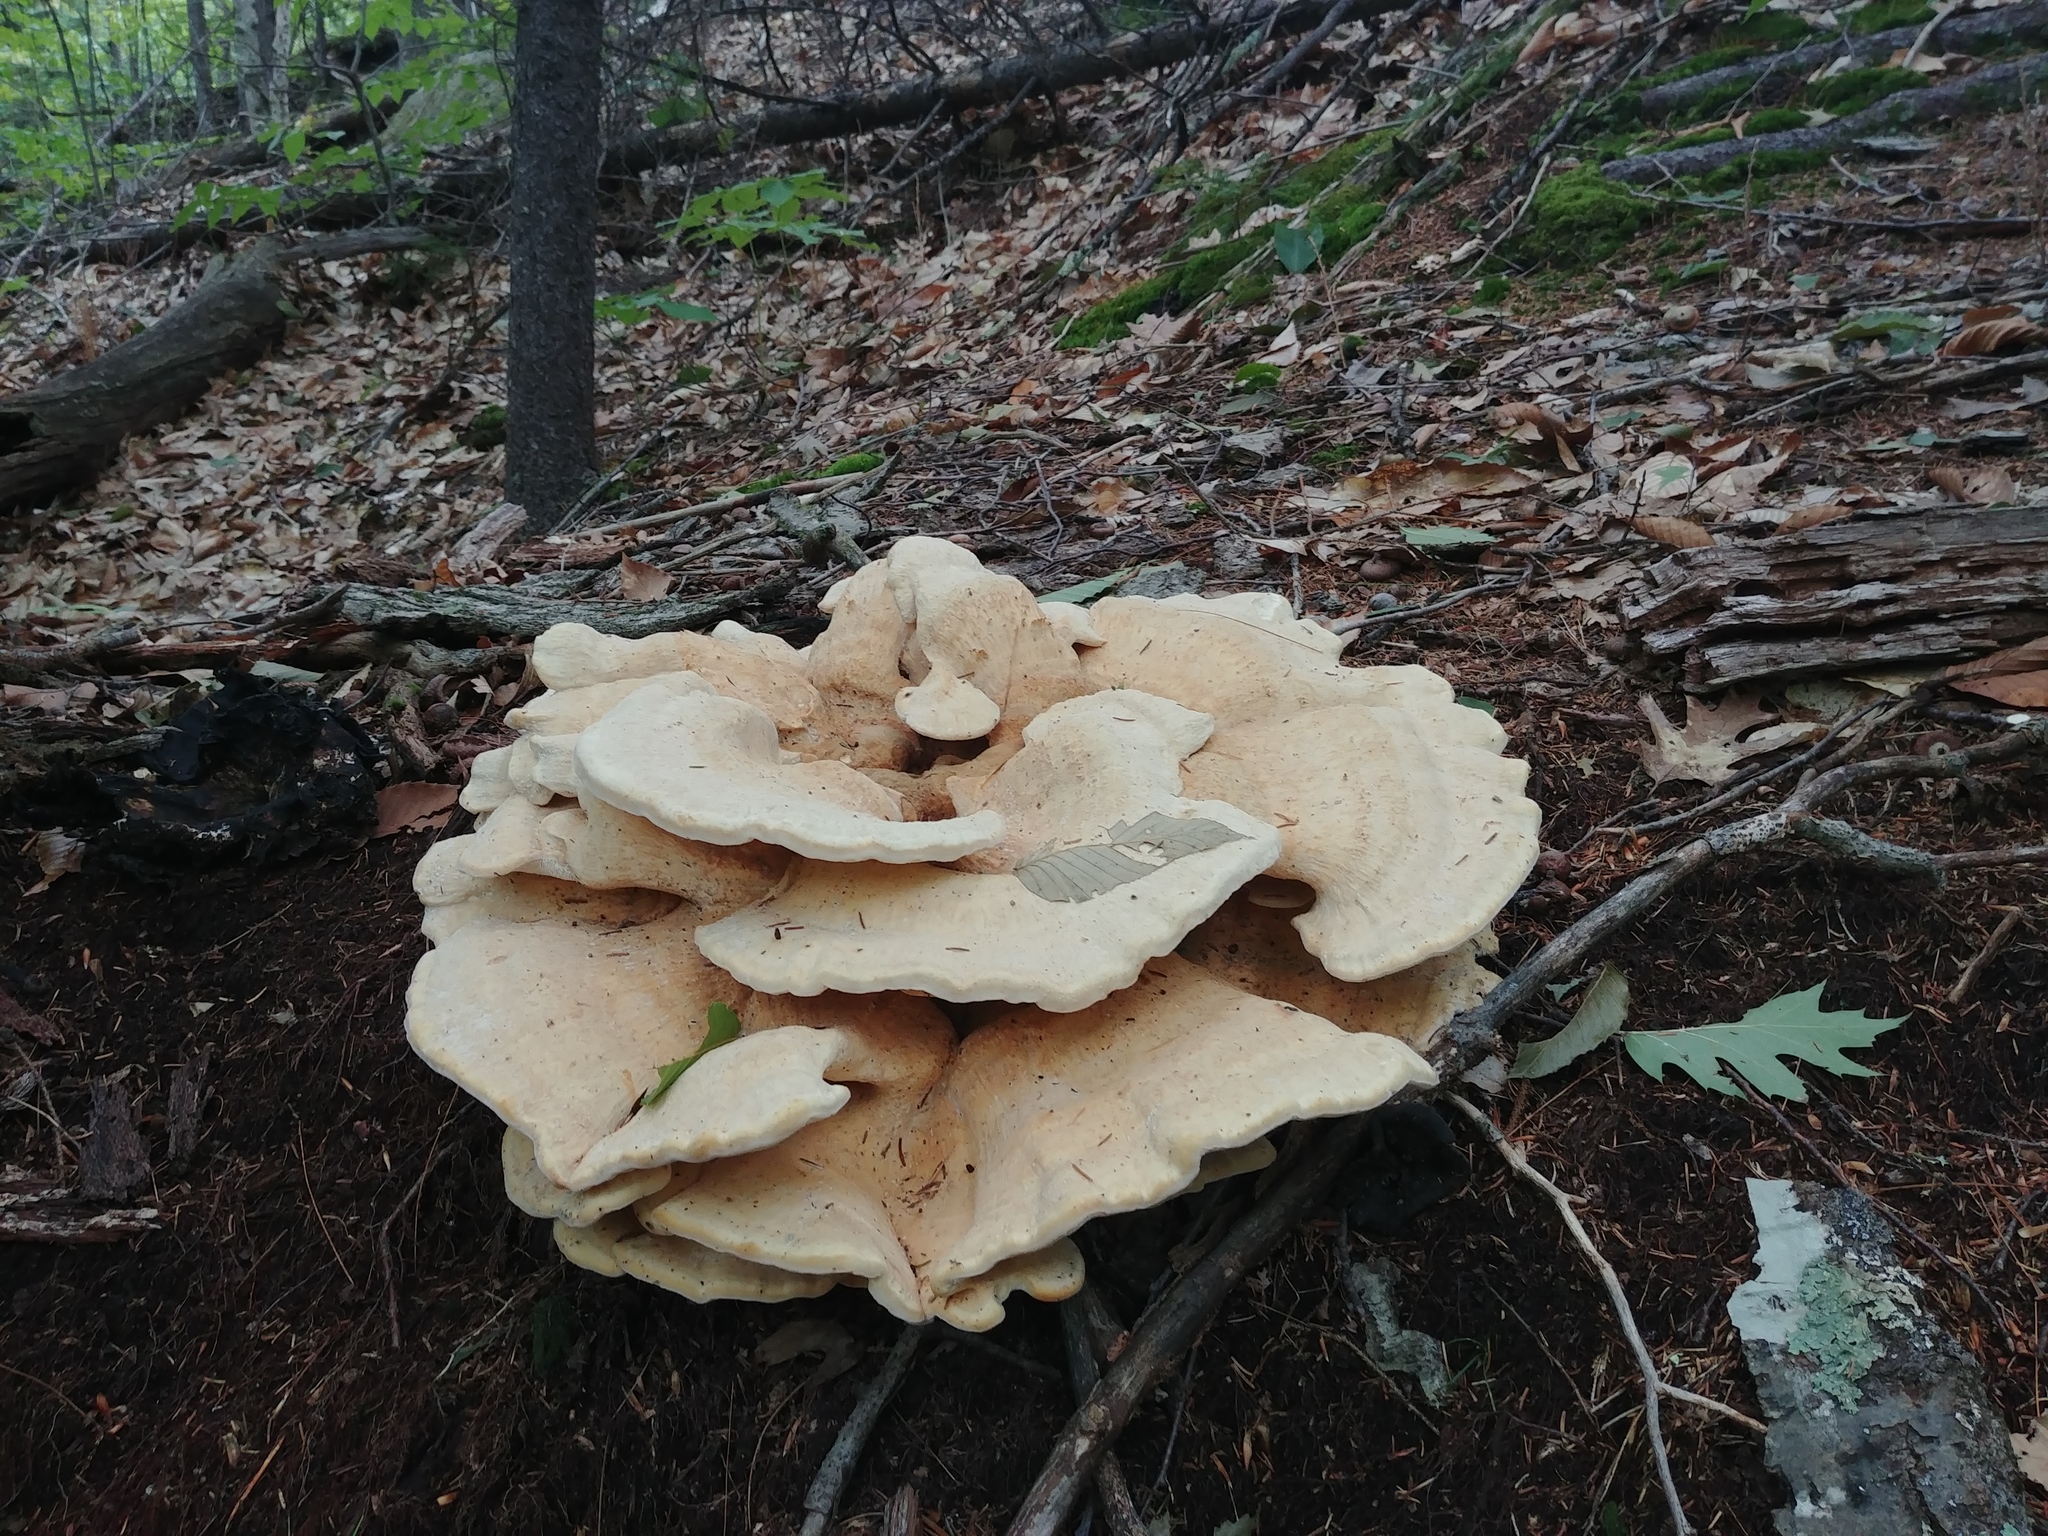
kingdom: Fungi
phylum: Basidiomycota
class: Agaricomycetes
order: Russulales
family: Bondarzewiaceae
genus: Bondarzewia
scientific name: Bondarzewia berkeleyi
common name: Berkeley's polypore
